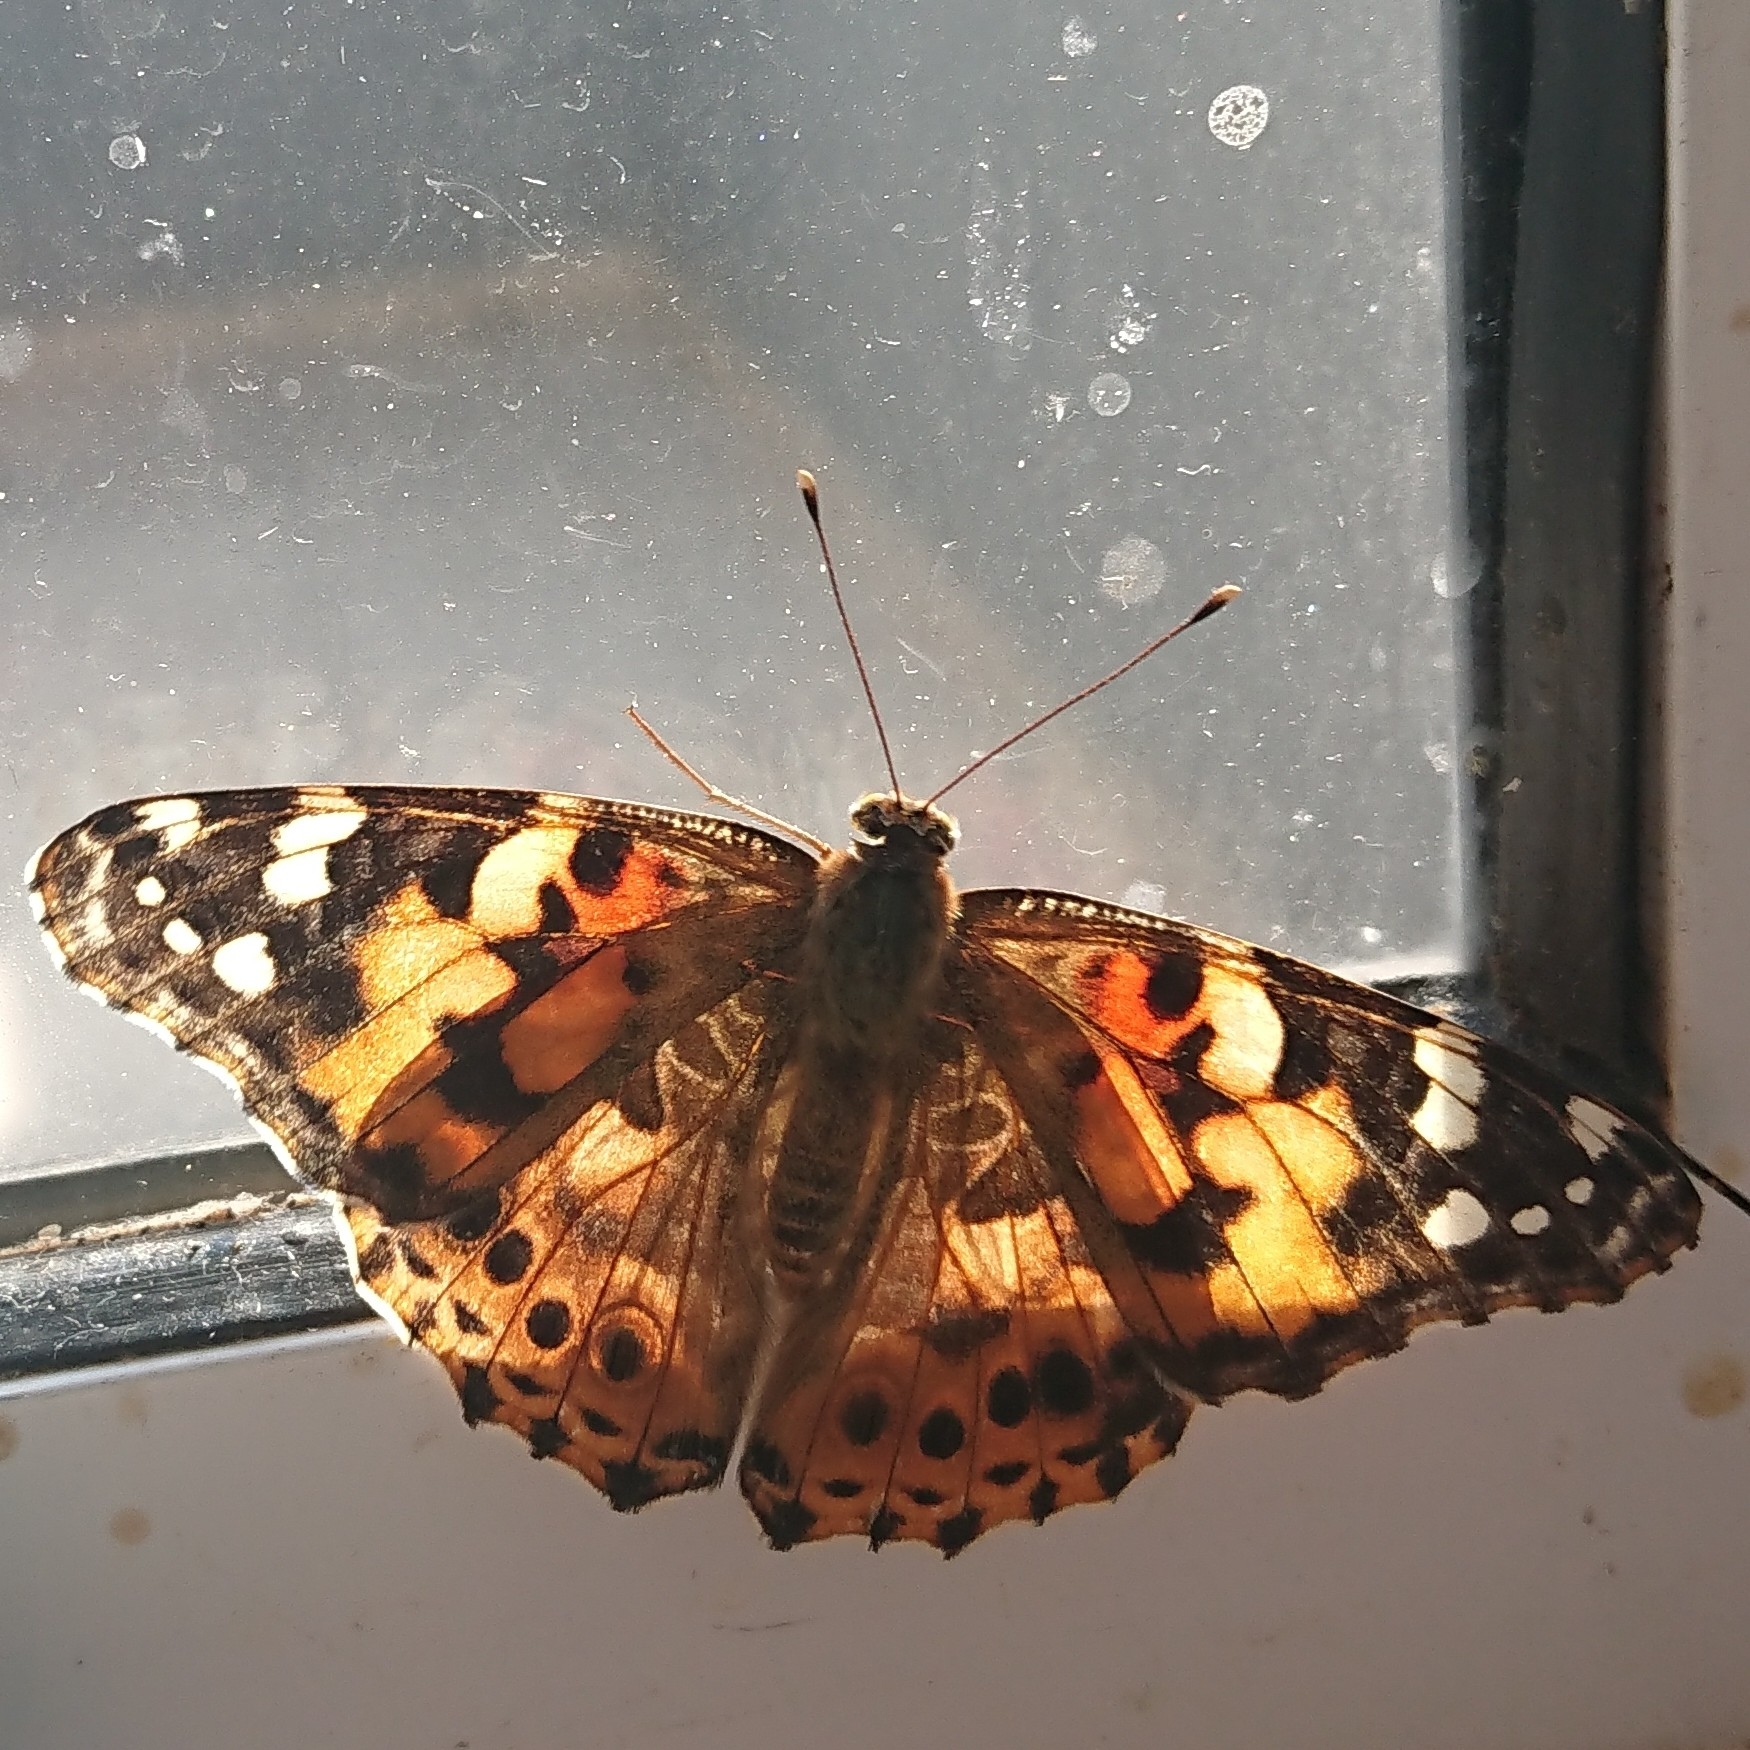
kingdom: Animalia
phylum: Arthropoda
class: Insecta
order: Lepidoptera
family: Nymphalidae
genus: Vanessa
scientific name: Vanessa cardui
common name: Painted lady
